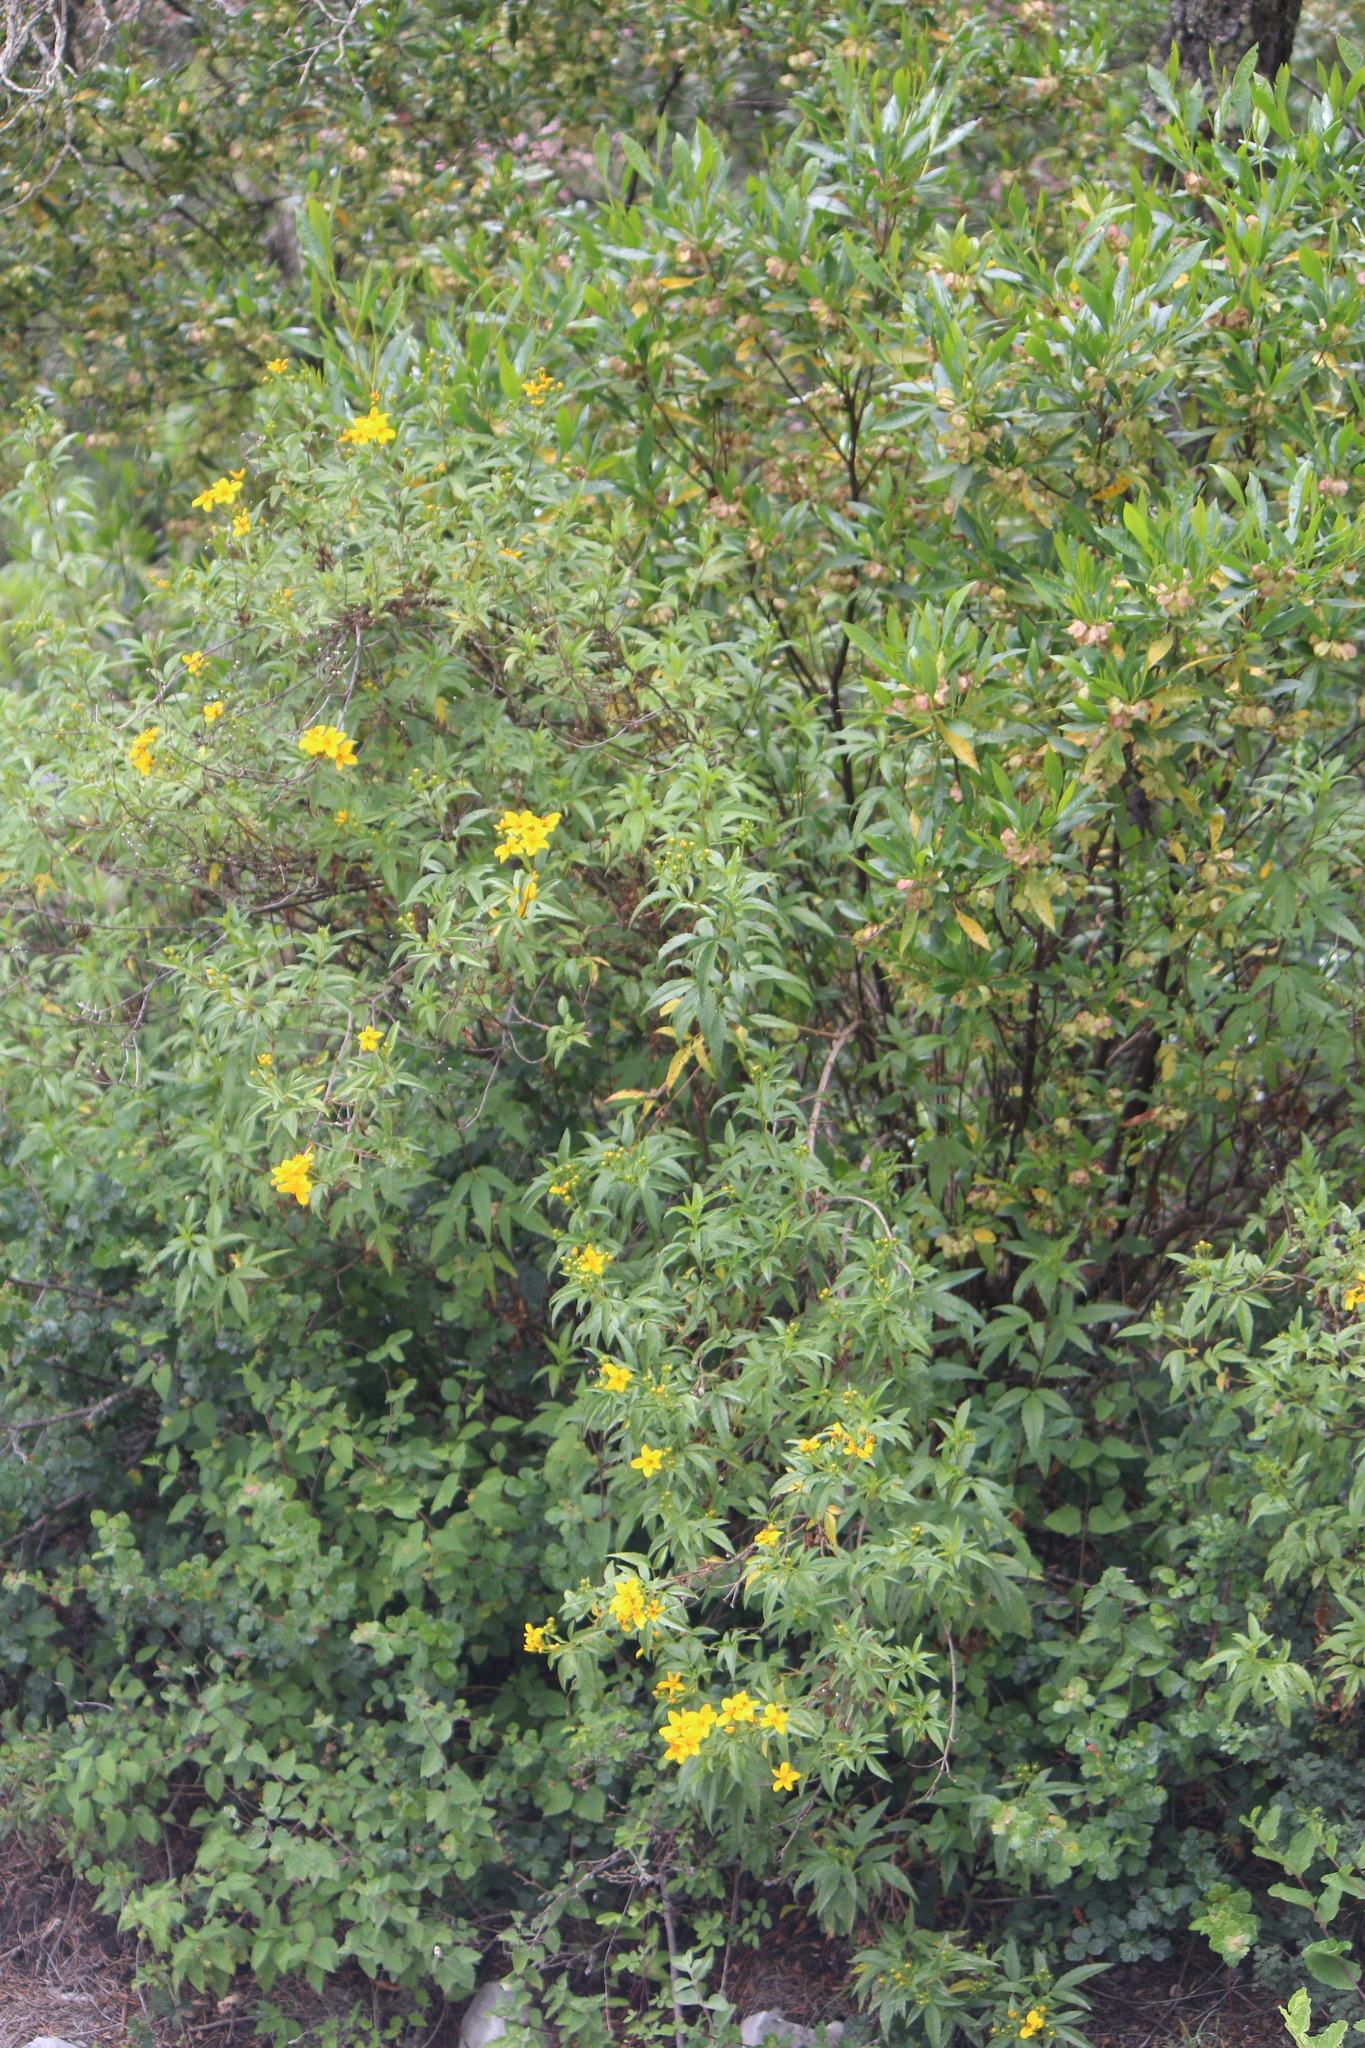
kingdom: Plantae
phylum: Tracheophyta
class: Magnoliopsida
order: Asterales
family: Asteraceae
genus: Electranthera
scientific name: Electranthera mutica
